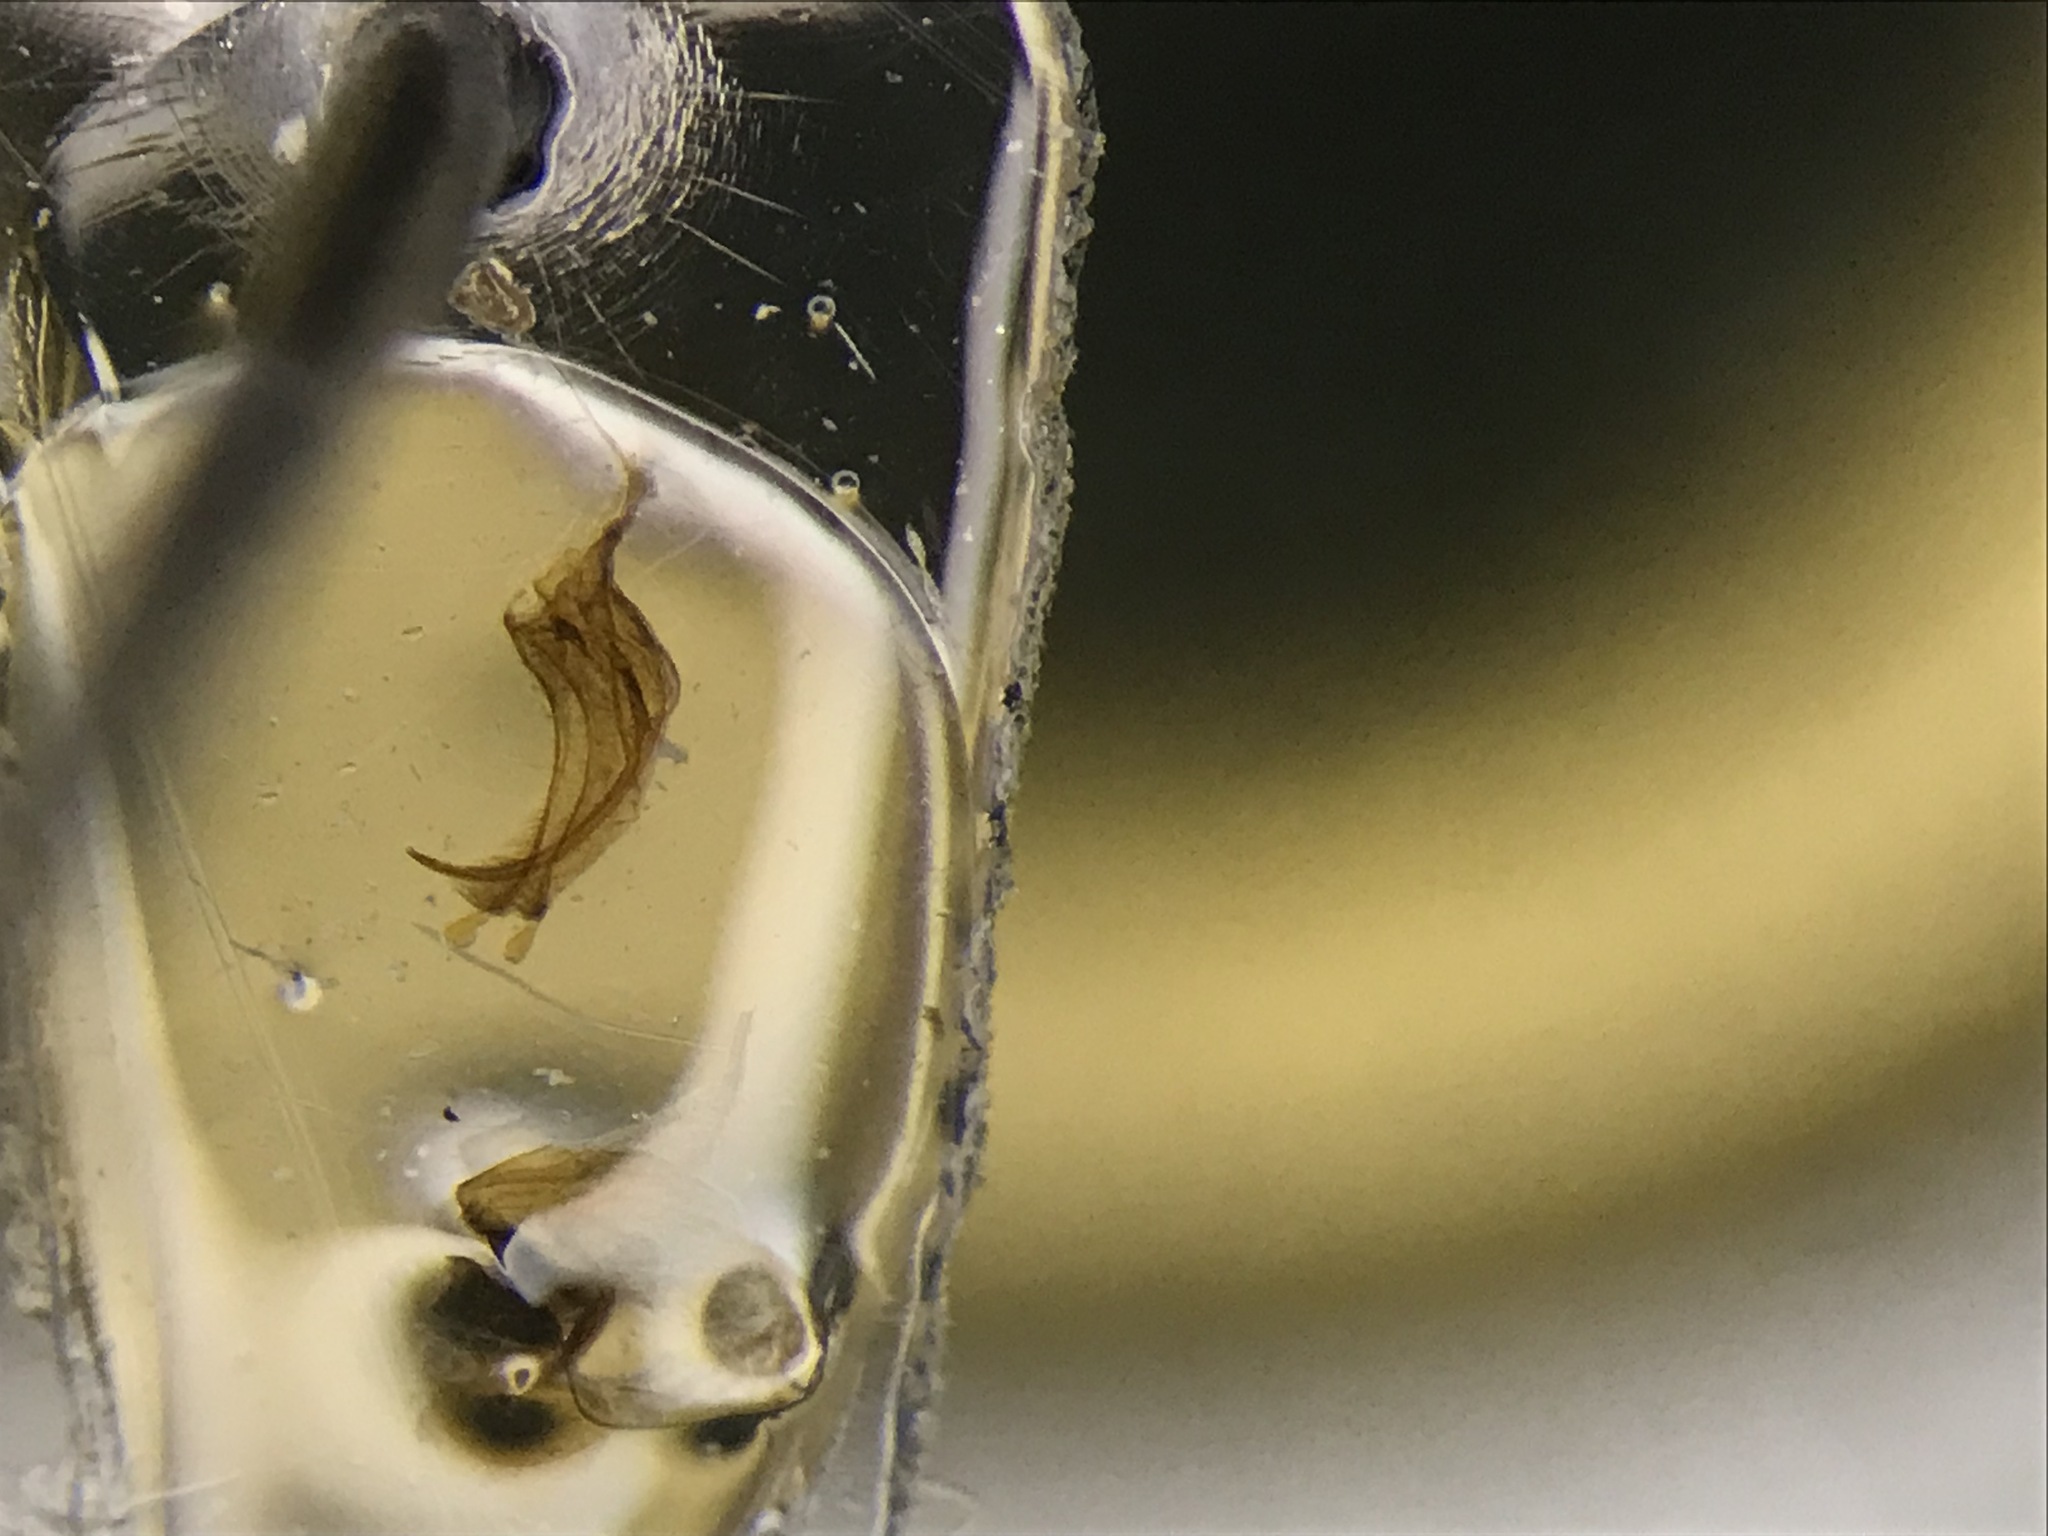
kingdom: Animalia
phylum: Arthropoda
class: Insecta
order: Coleoptera
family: Dytiscidae
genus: Copelatus
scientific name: Copelatus glyphicus
